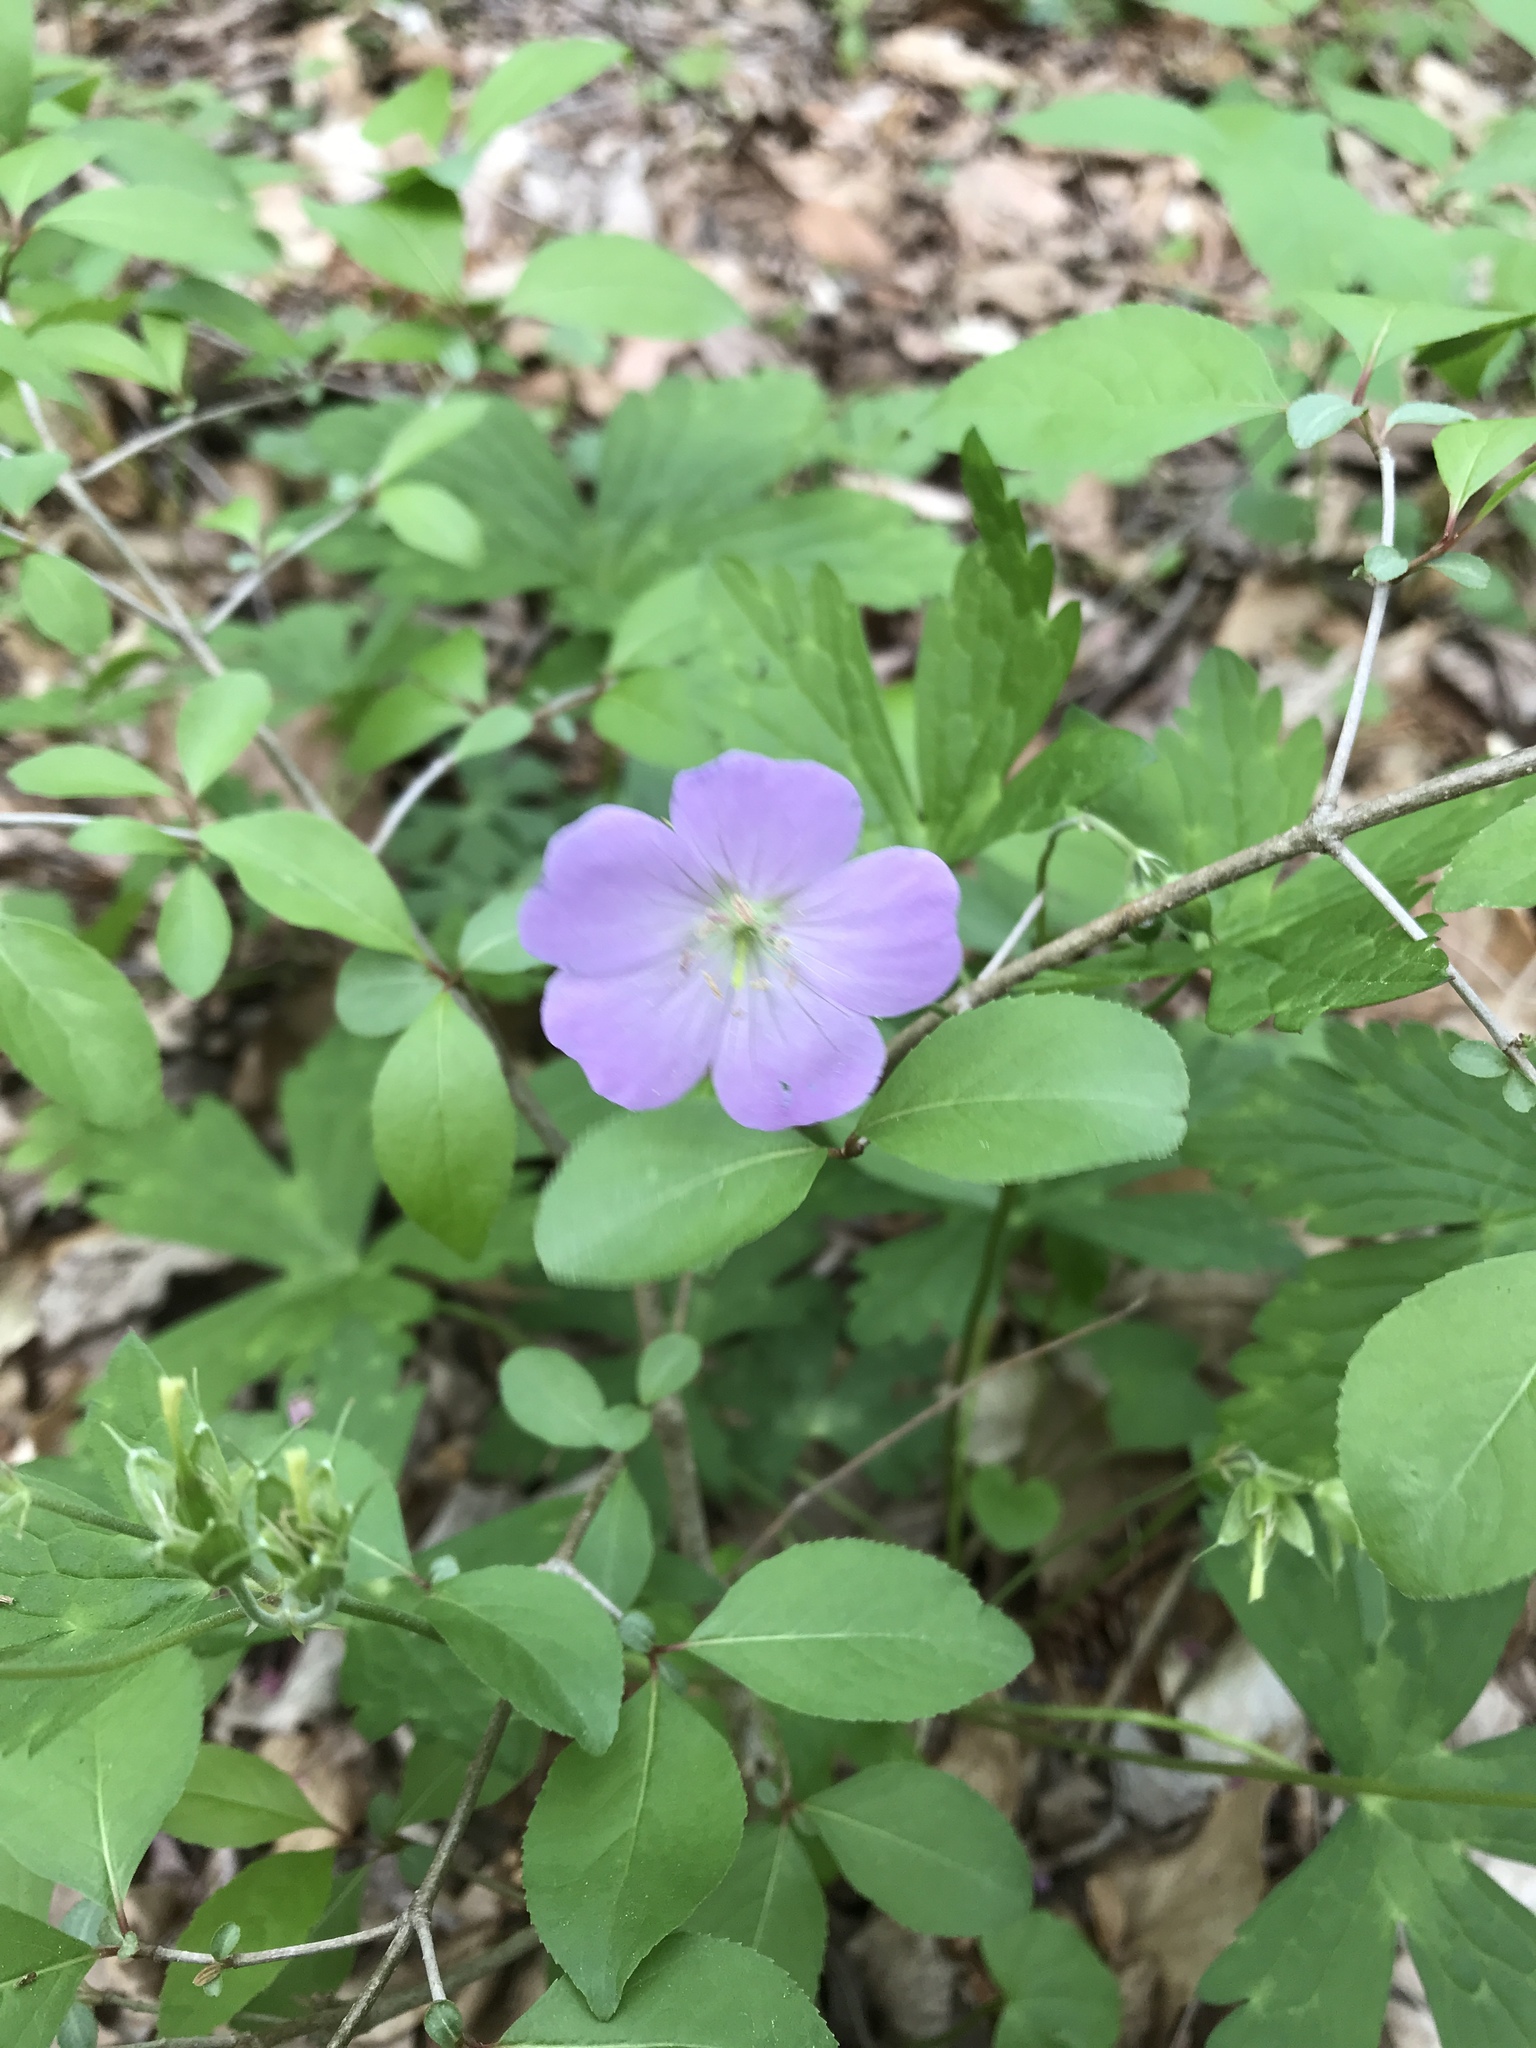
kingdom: Plantae
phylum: Tracheophyta
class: Magnoliopsida
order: Geraniales
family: Geraniaceae
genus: Geranium
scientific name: Geranium maculatum
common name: Spotted geranium
